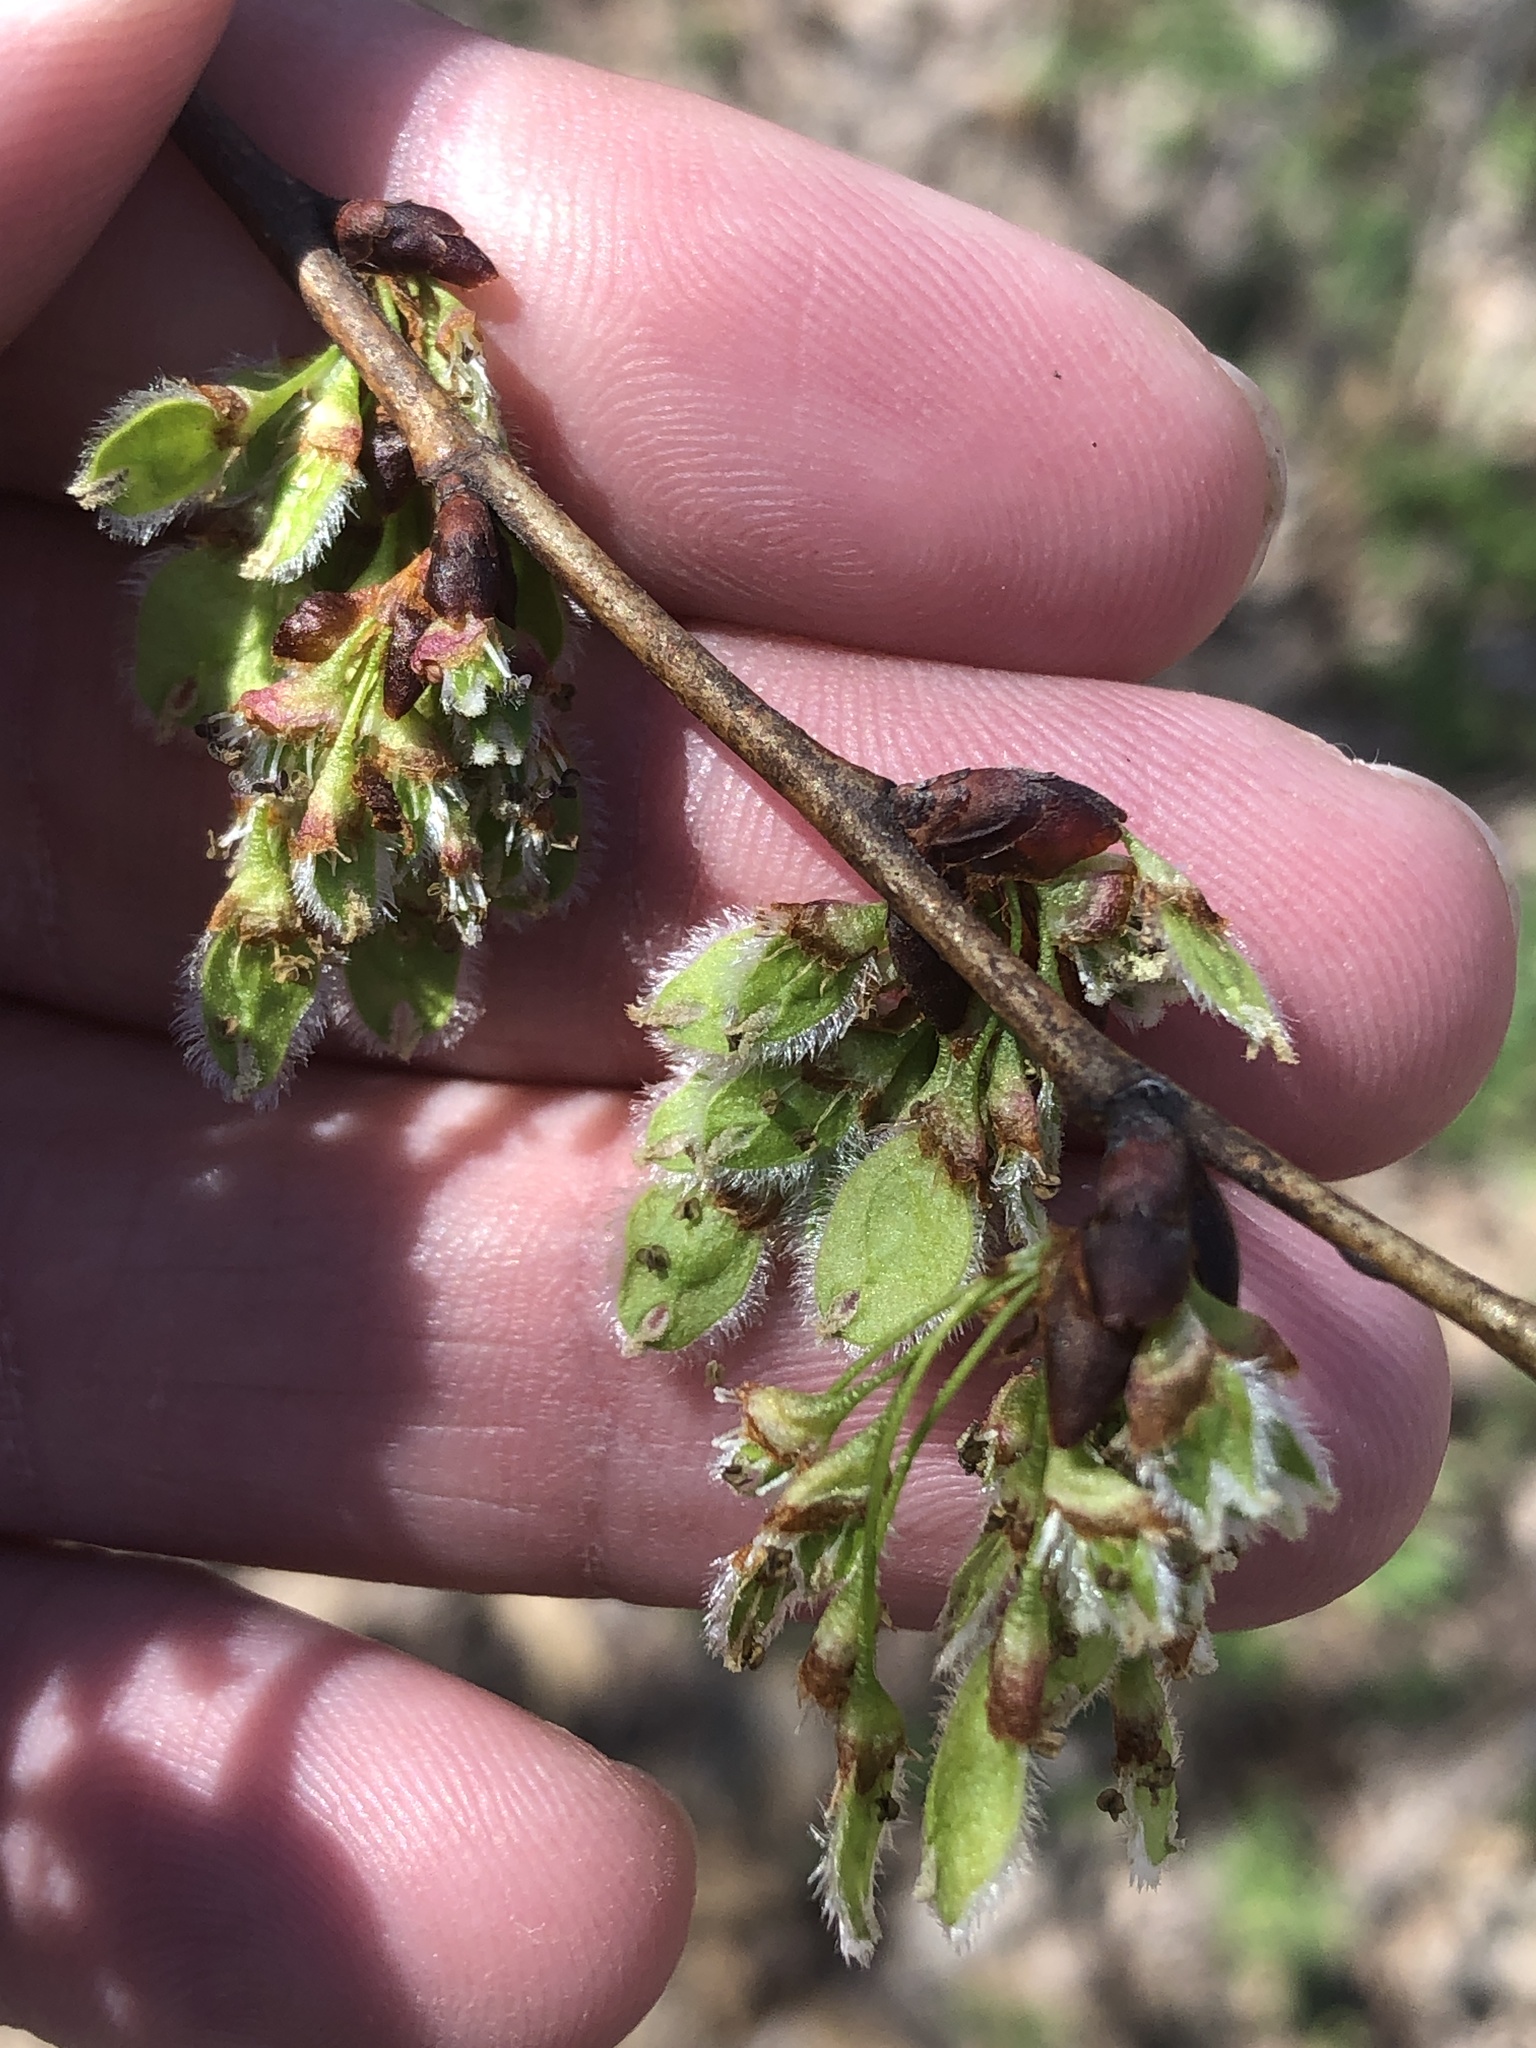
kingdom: Plantae
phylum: Tracheophyta
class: Magnoliopsida
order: Rosales
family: Ulmaceae
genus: Ulmus
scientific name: Ulmus americana
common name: American elm
